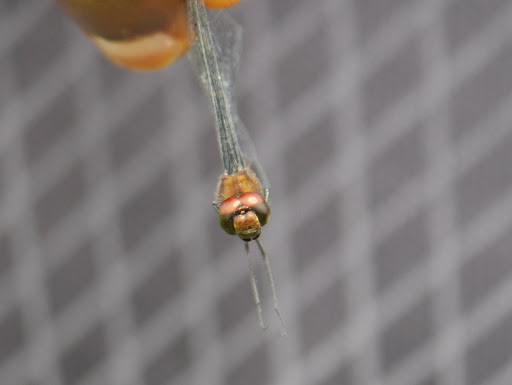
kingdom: Animalia
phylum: Arthropoda
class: Insecta
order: Odonata
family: Libellulidae
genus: Trithemis
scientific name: Trithemis aenea
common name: Bronze dropwing
